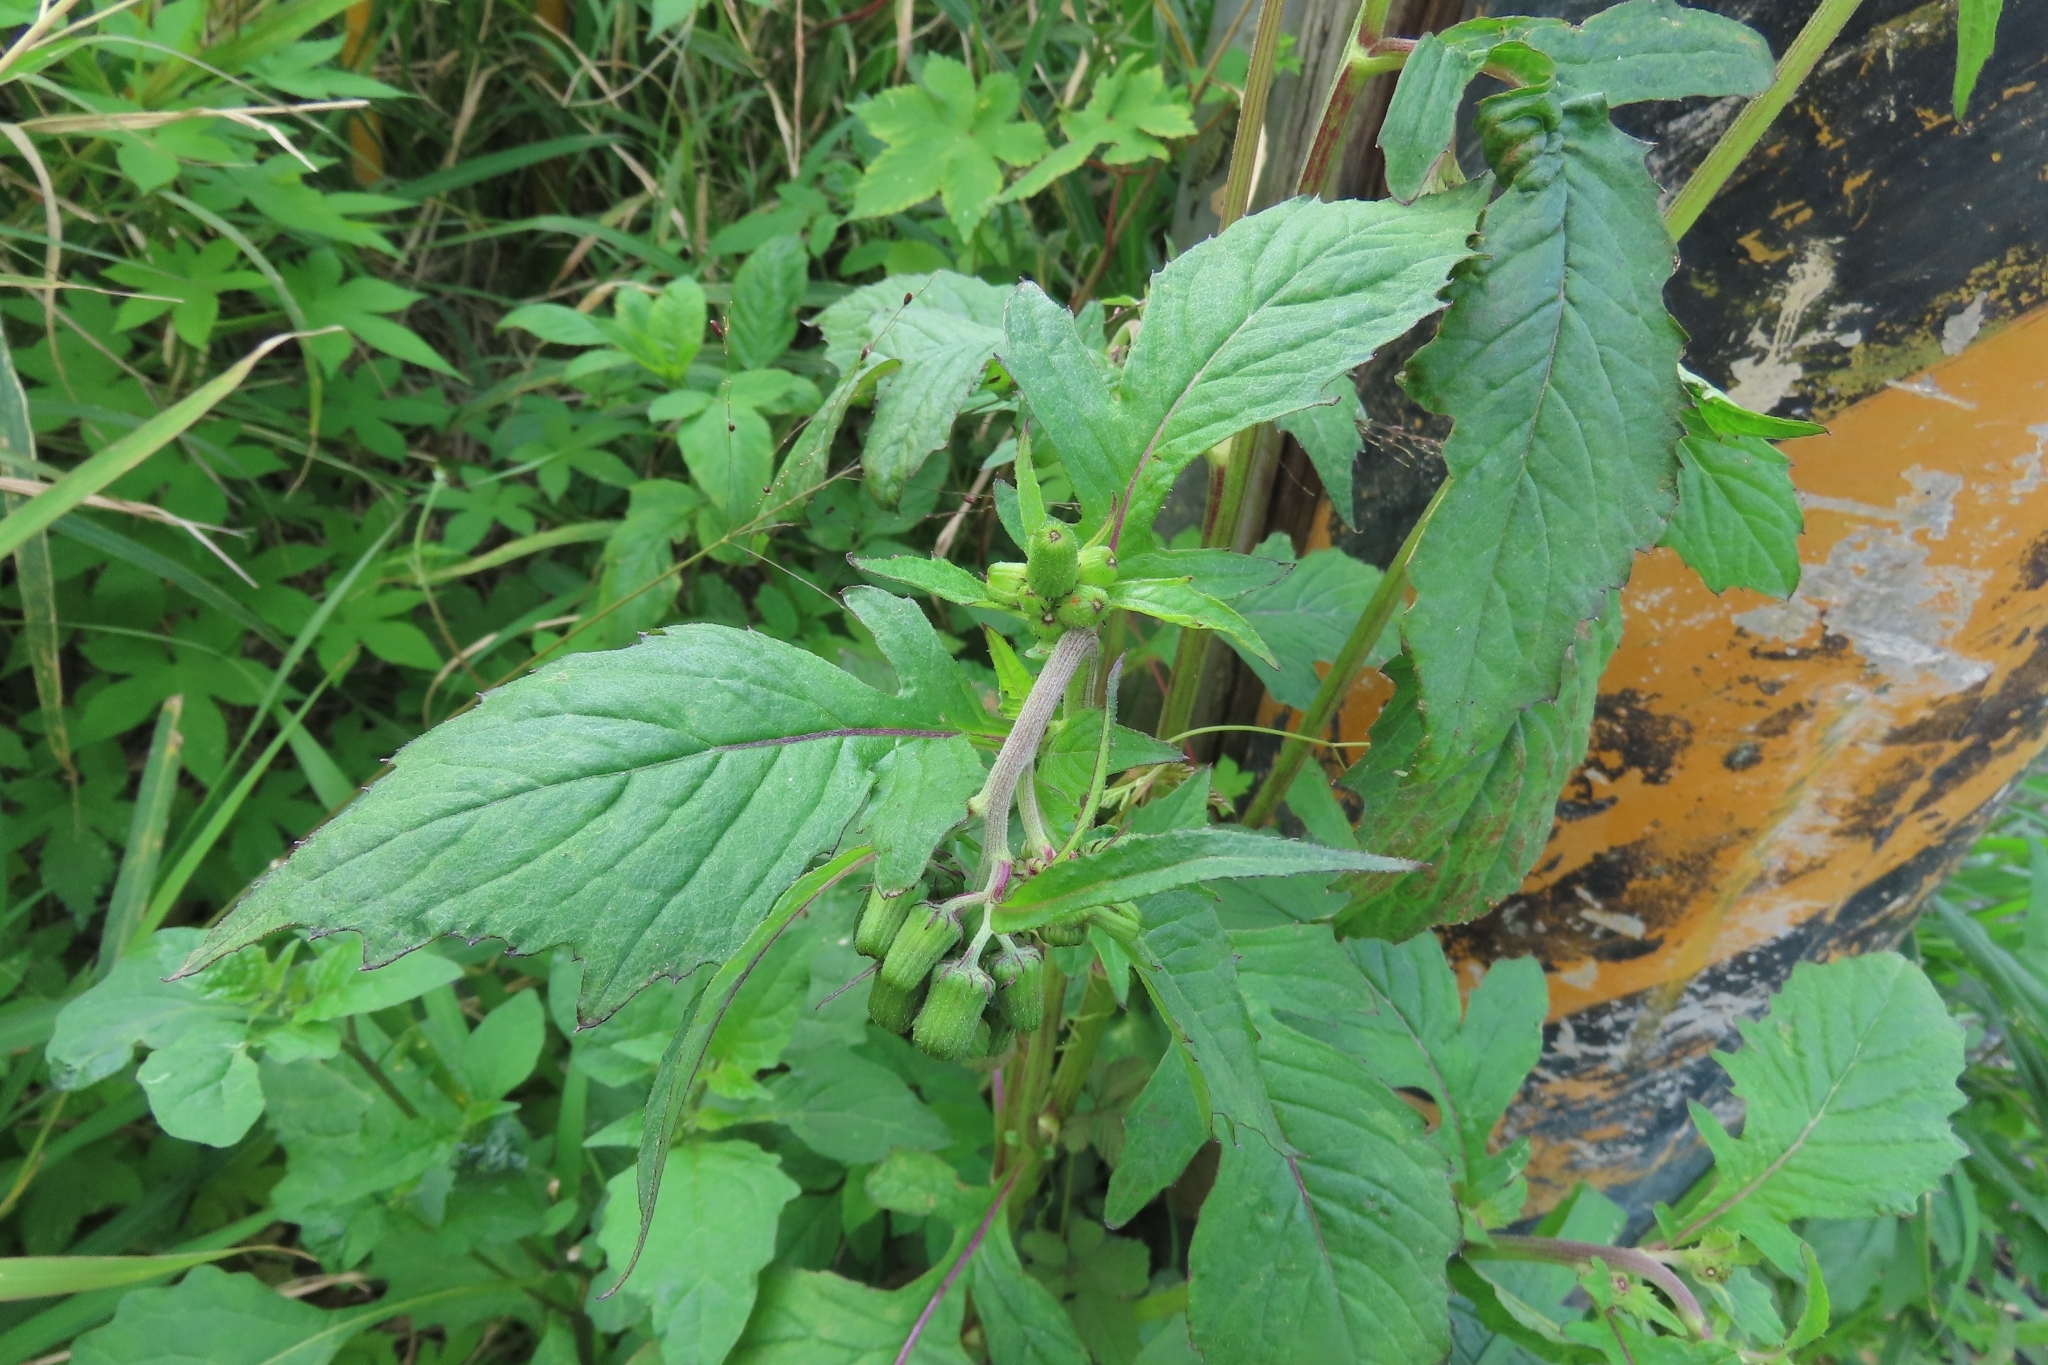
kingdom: Plantae
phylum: Tracheophyta
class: Magnoliopsida
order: Asterales
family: Asteraceae
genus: Crassocephalum
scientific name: Crassocephalum crepidioides
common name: Redflower ragleaf
